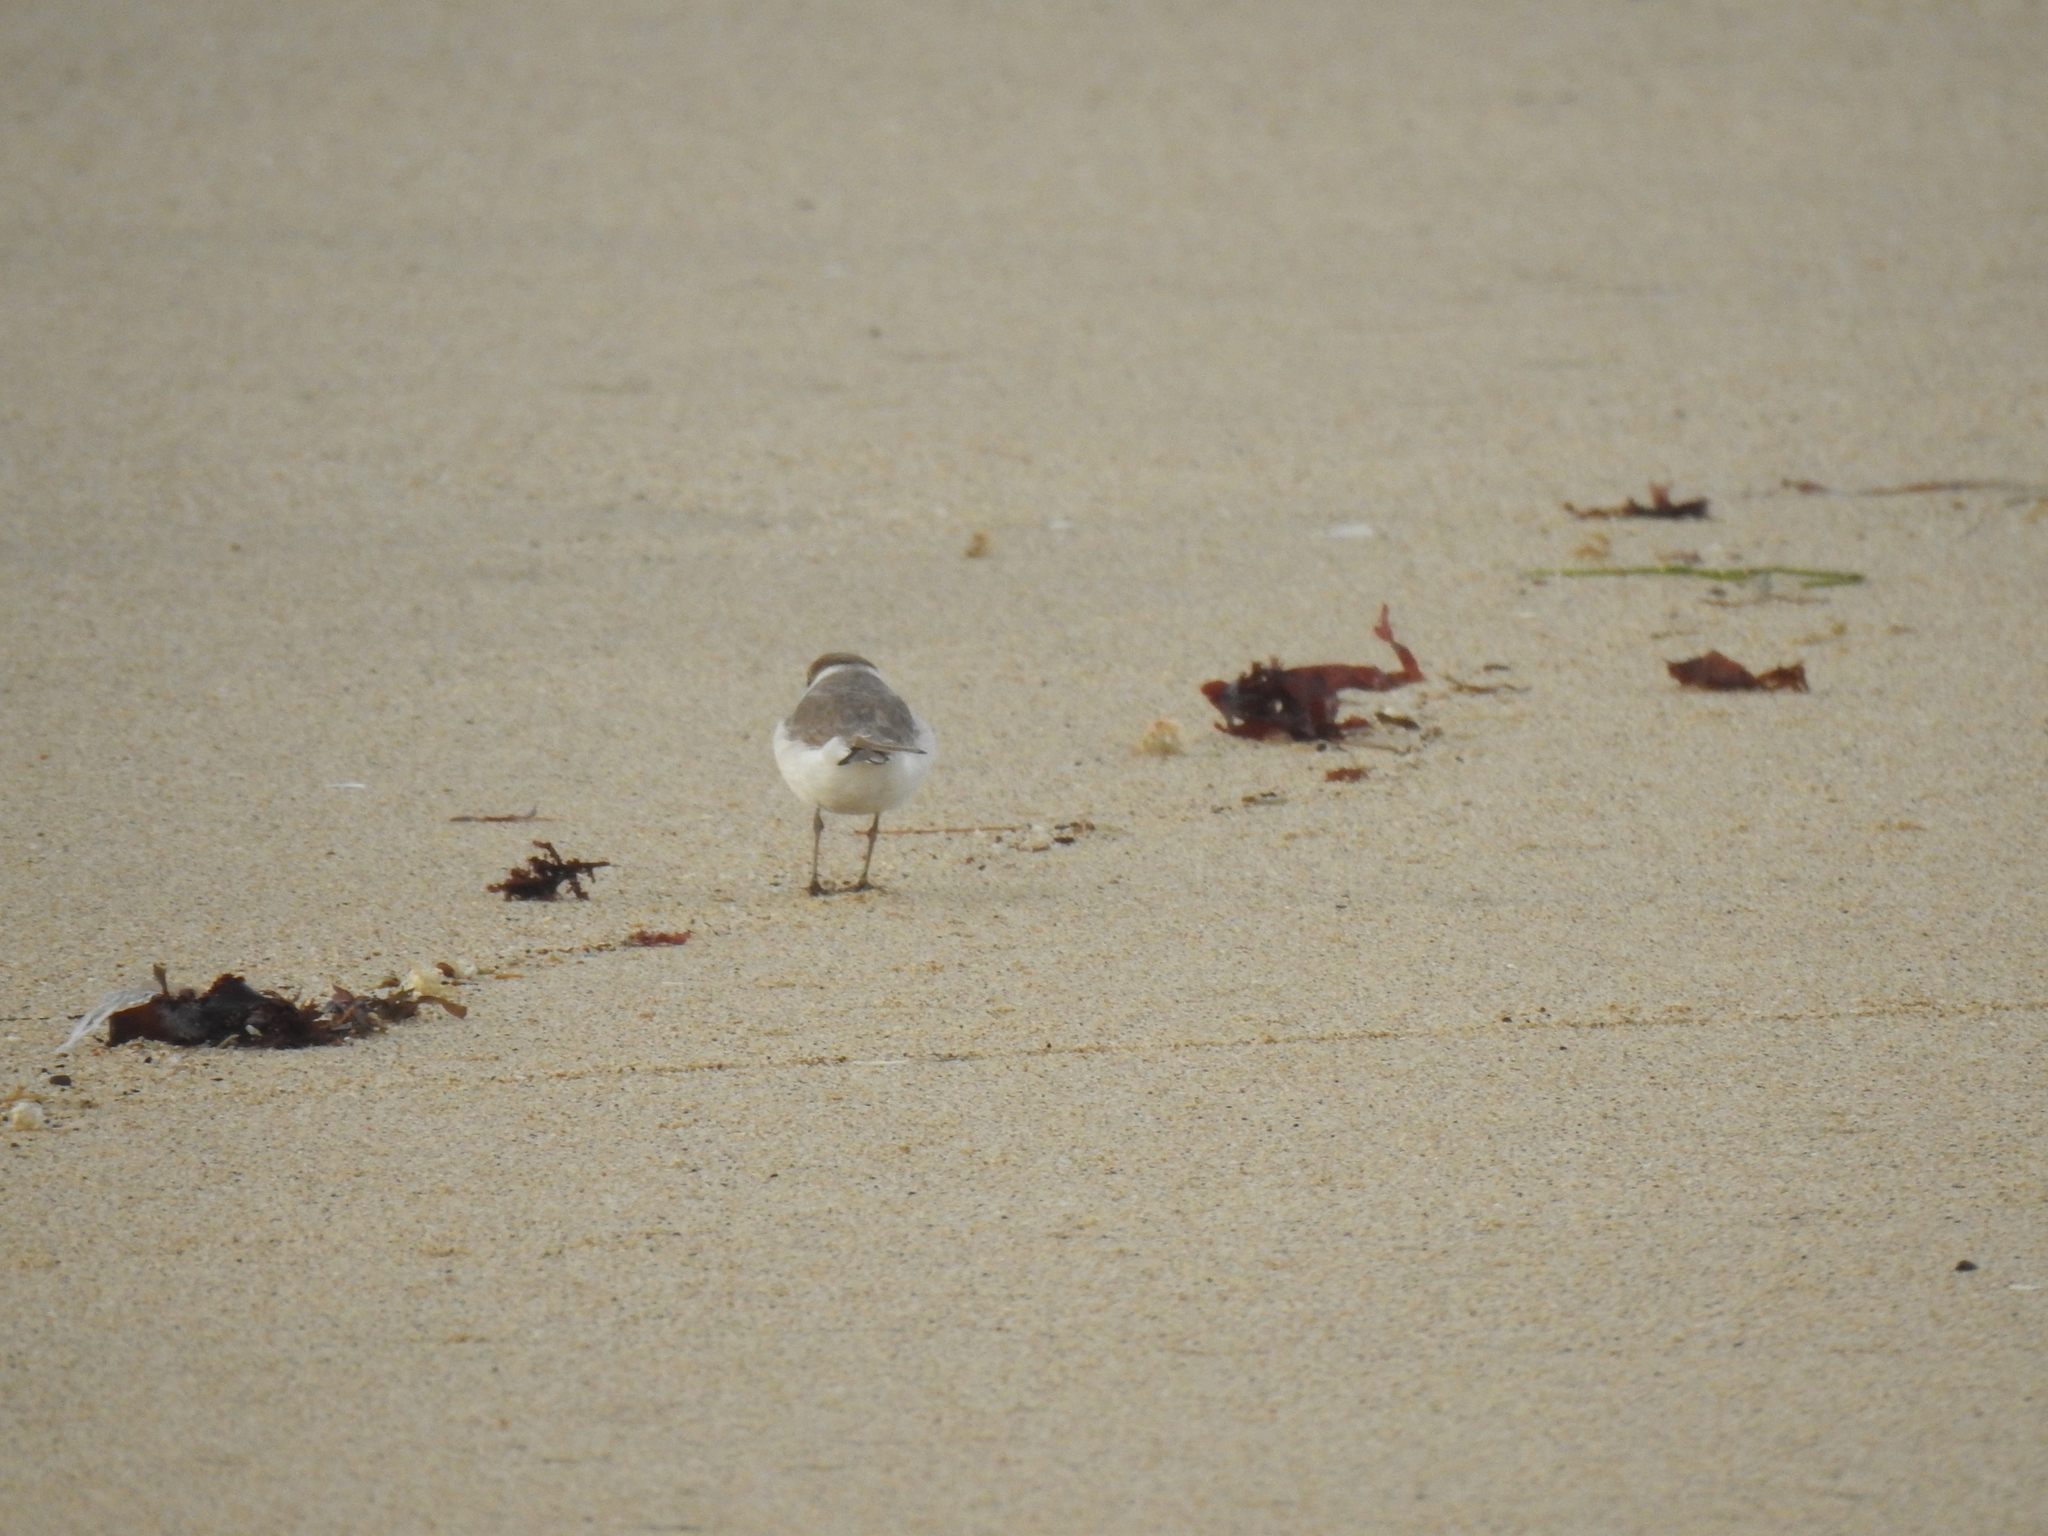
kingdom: Animalia
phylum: Chordata
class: Aves
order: Charadriiformes
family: Charadriidae
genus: Anarhynchus
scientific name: Anarhynchus
